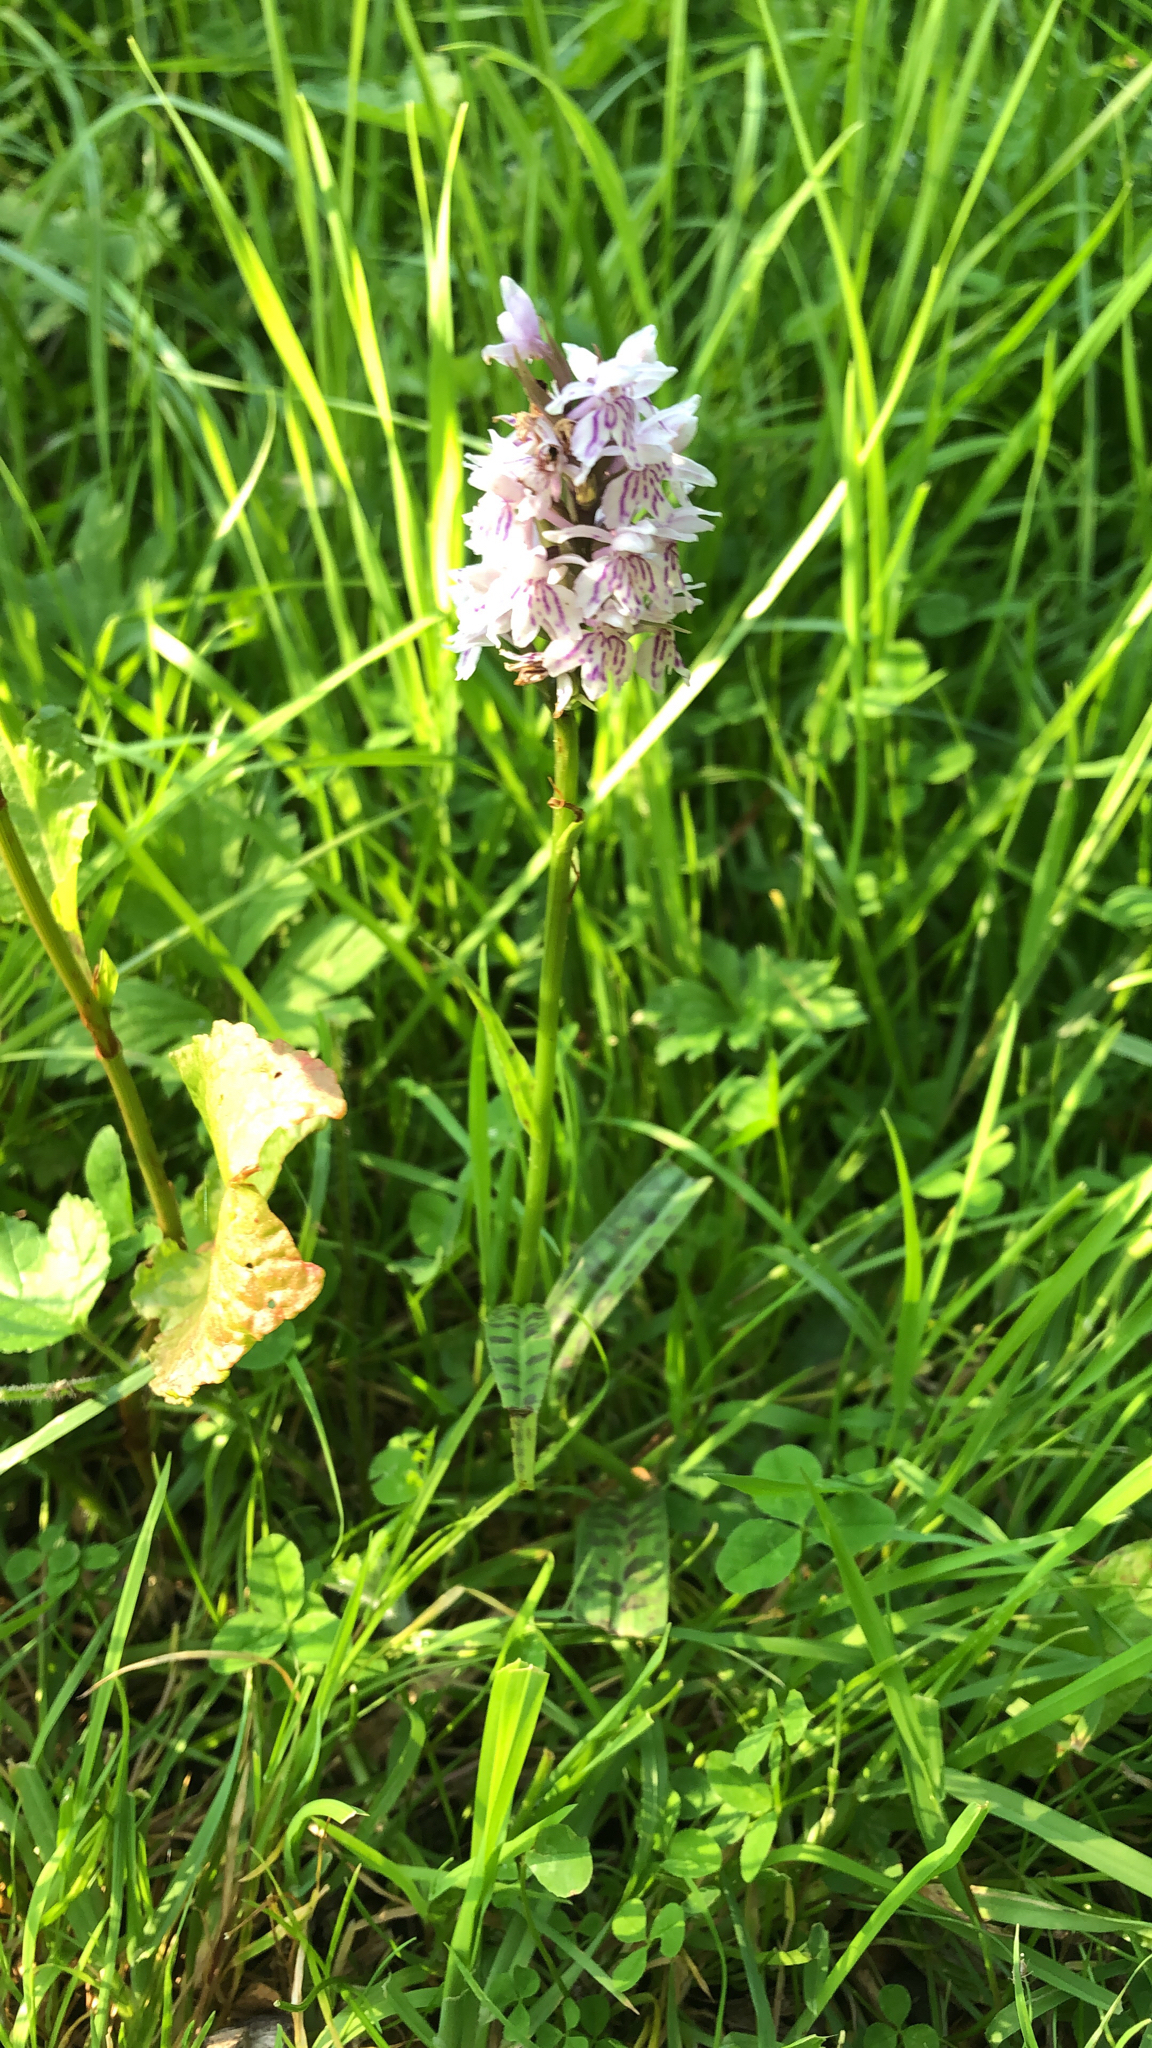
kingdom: Plantae
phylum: Tracheophyta
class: Liliopsida
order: Asparagales
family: Orchidaceae
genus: Dactylorhiza
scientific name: Dactylorhiza maculata
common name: Heath spotted-orchid
